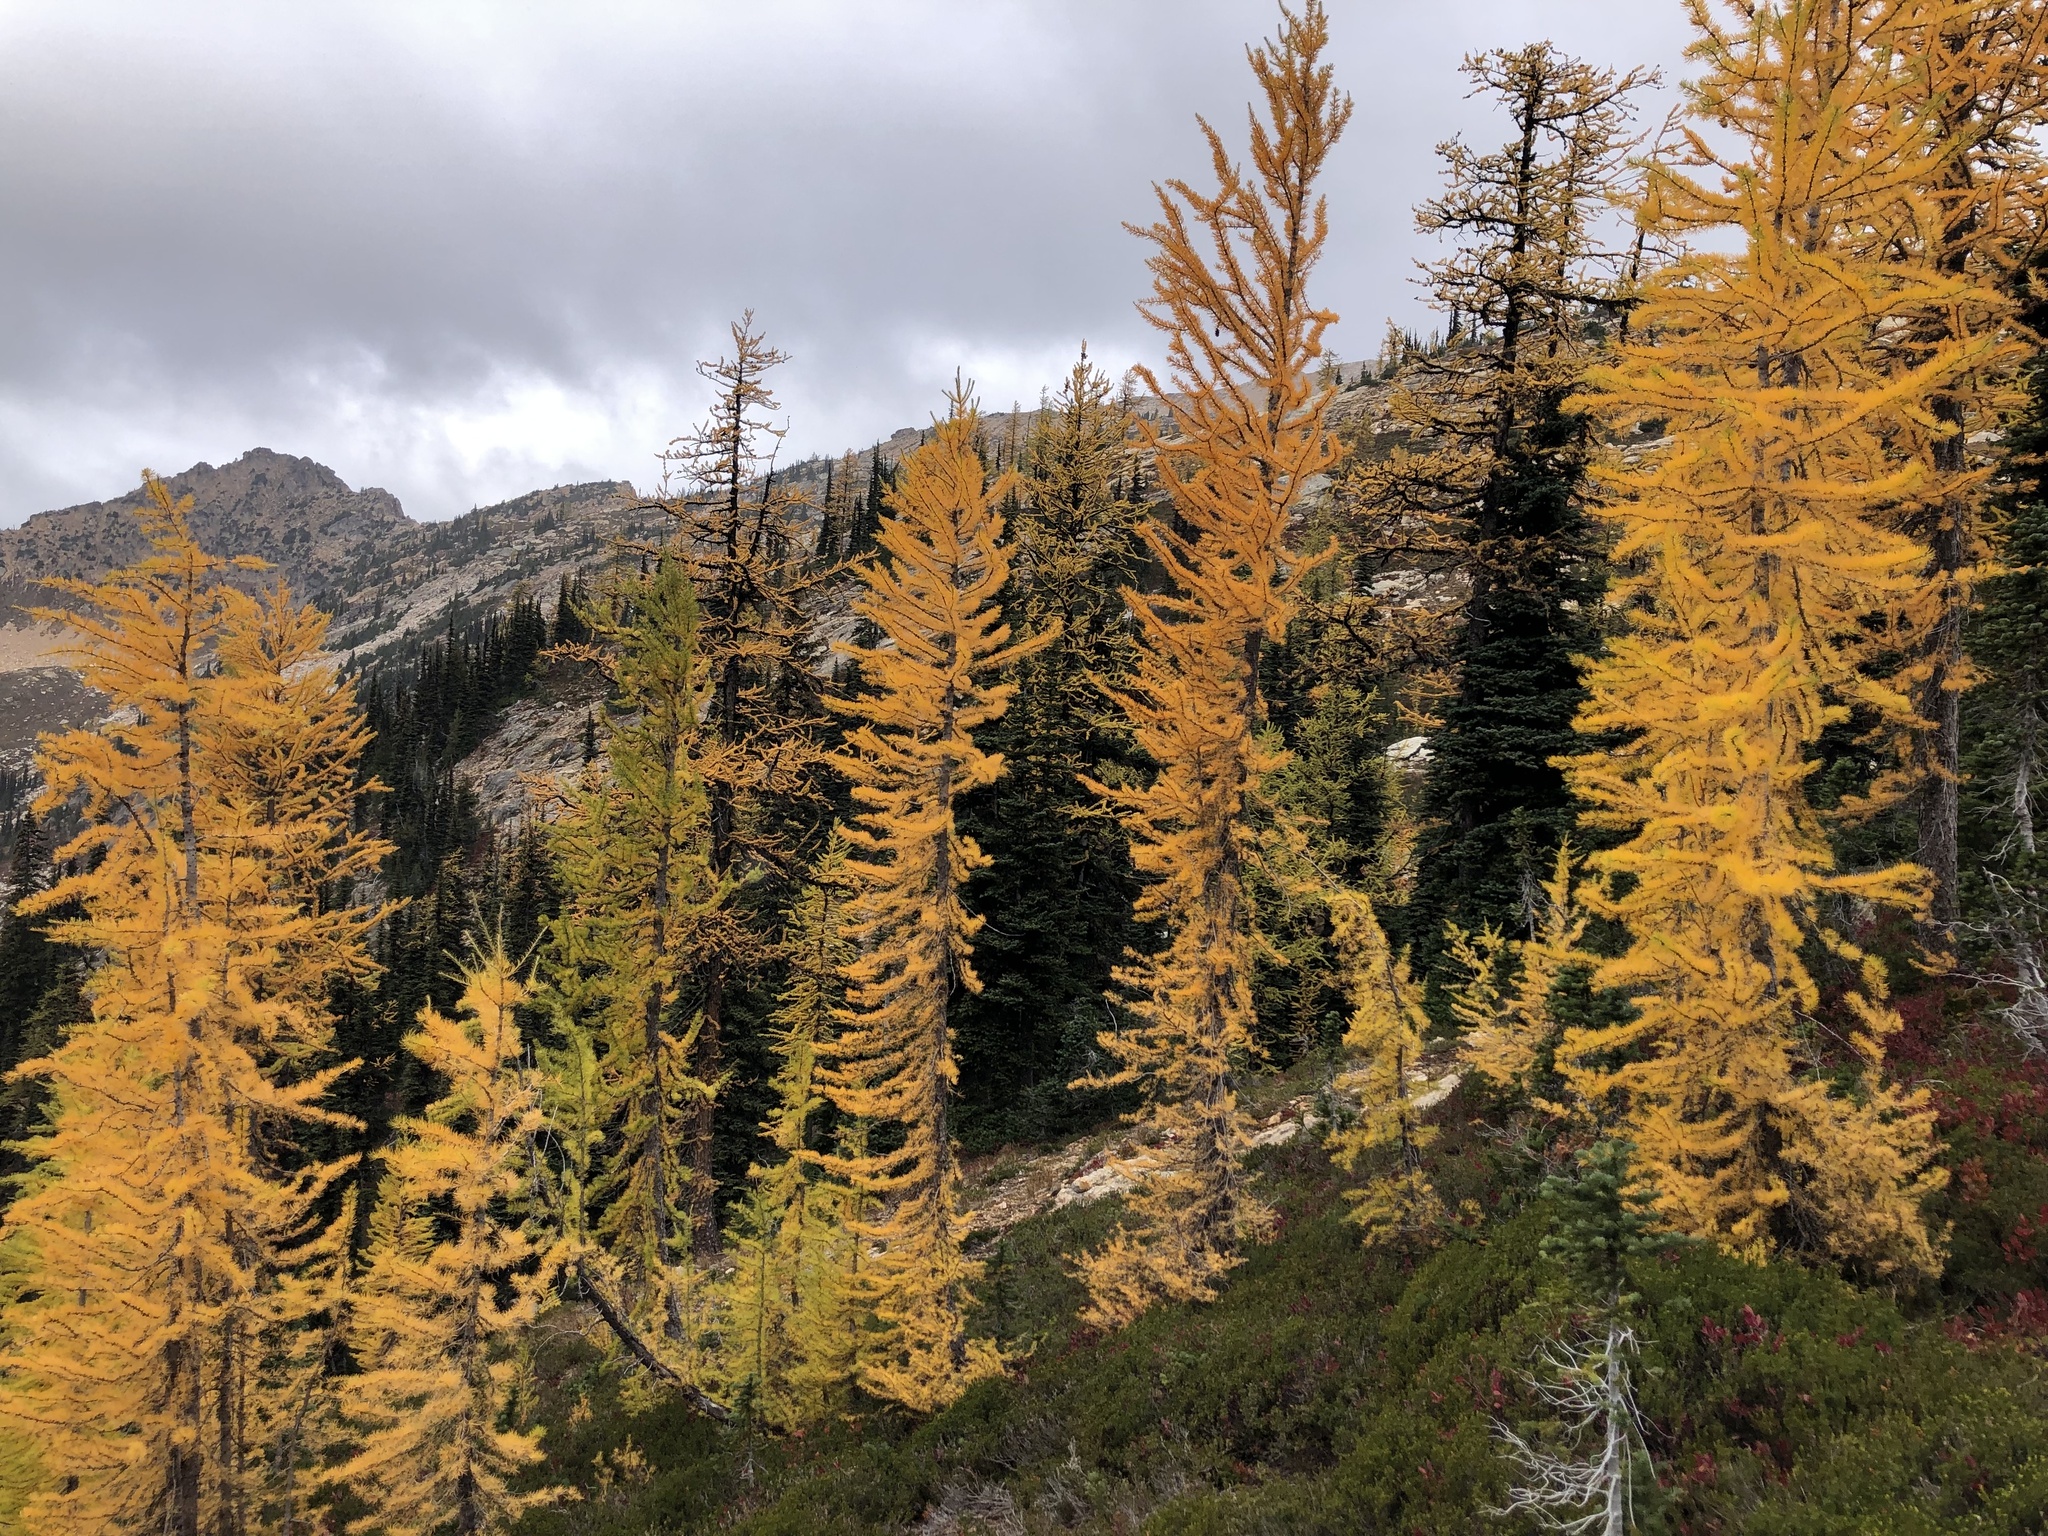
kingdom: Plantae
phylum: Tracheophyta
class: Pinopsida
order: Pinales
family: Pinaceae
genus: Larix
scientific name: Larix lyallii
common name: Alpine larch
